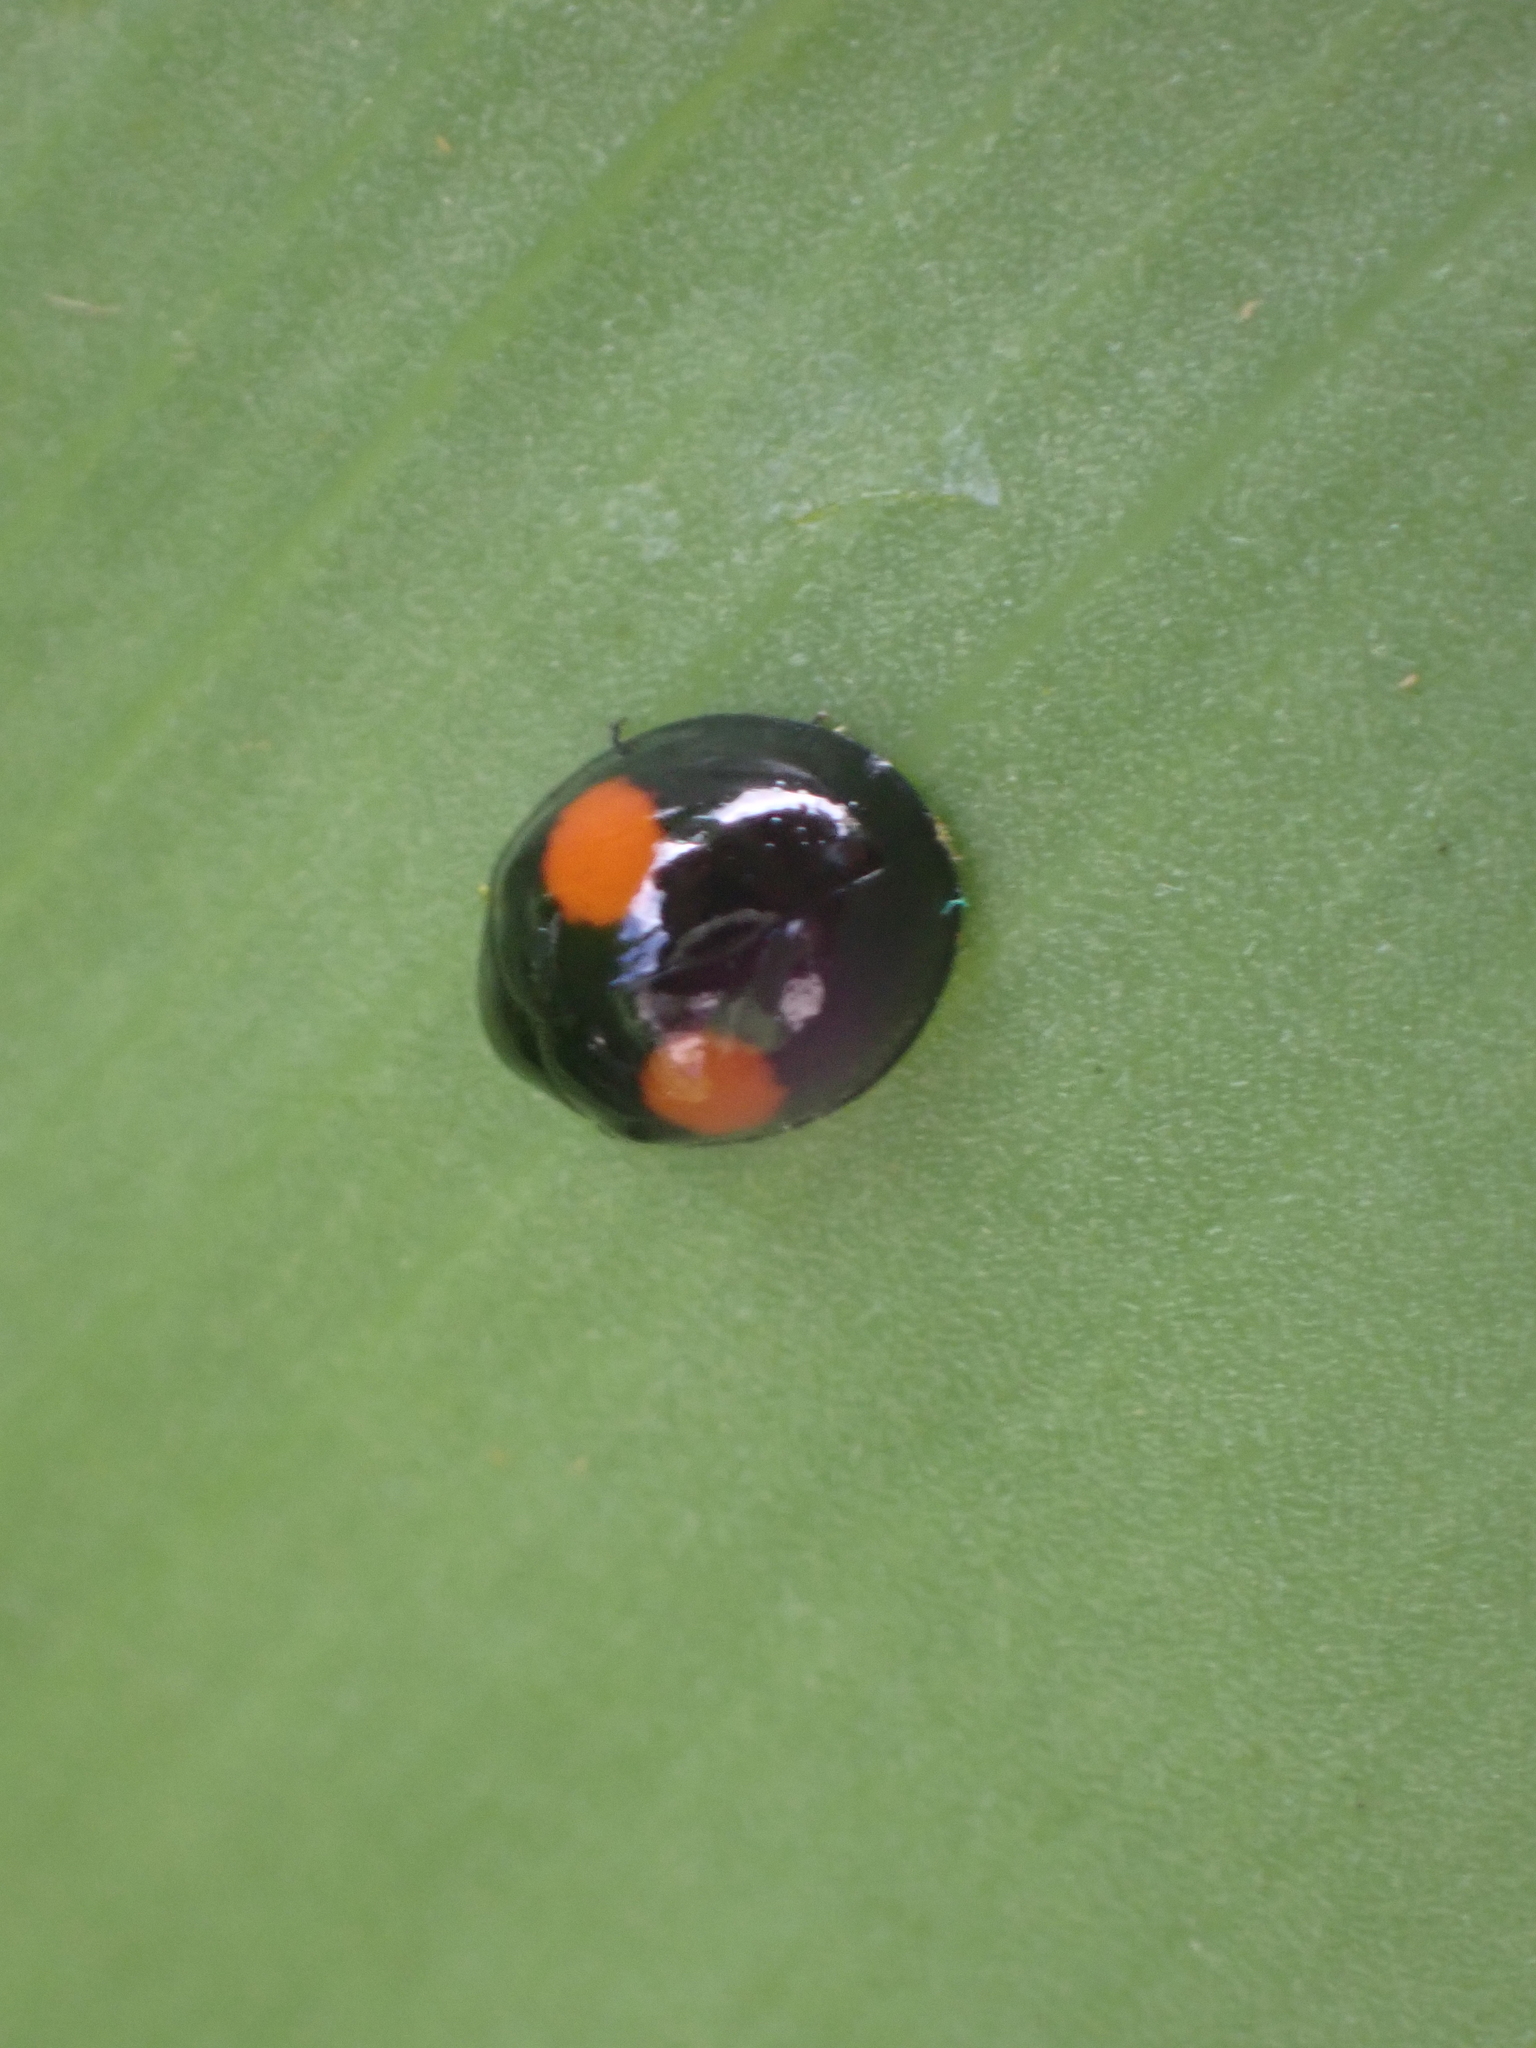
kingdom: Animalia
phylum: Arthropoda
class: Insecta
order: Coleoptera
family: Coccinellidae
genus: Chilocorus
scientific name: Chilocorus cacti
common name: Cactus lady beetle
